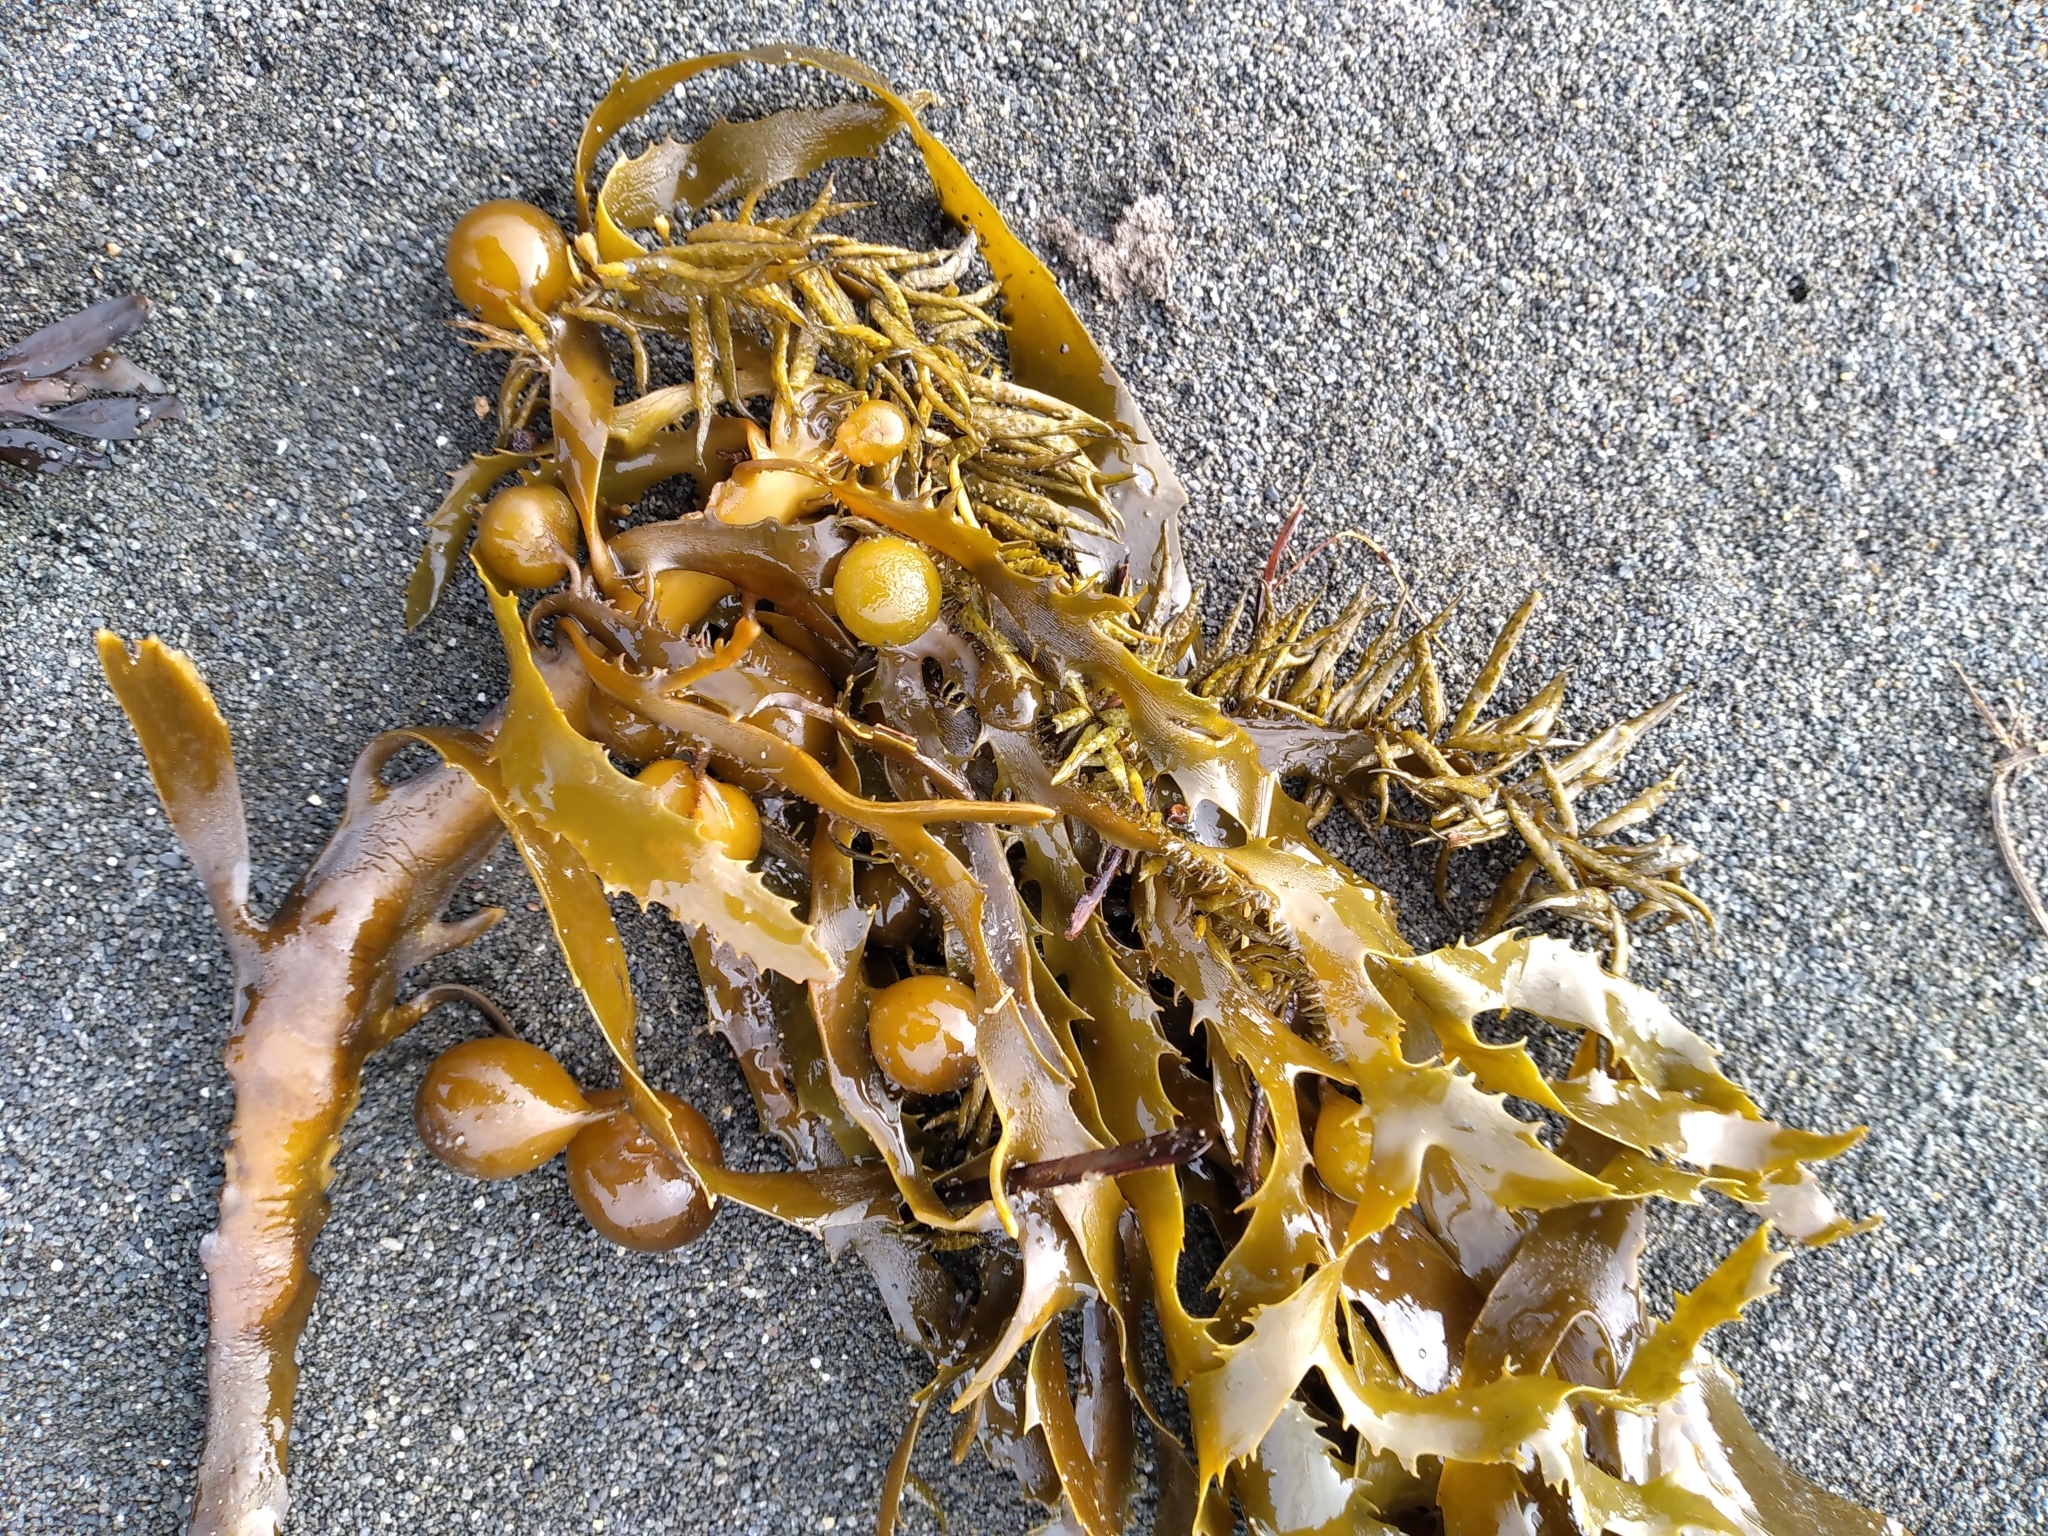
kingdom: Chromista
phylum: Ochrophyta
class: Phaeophyceae
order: Fucales
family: Seirococcaceae
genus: Marginariella
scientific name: Marginariella urvilliana
